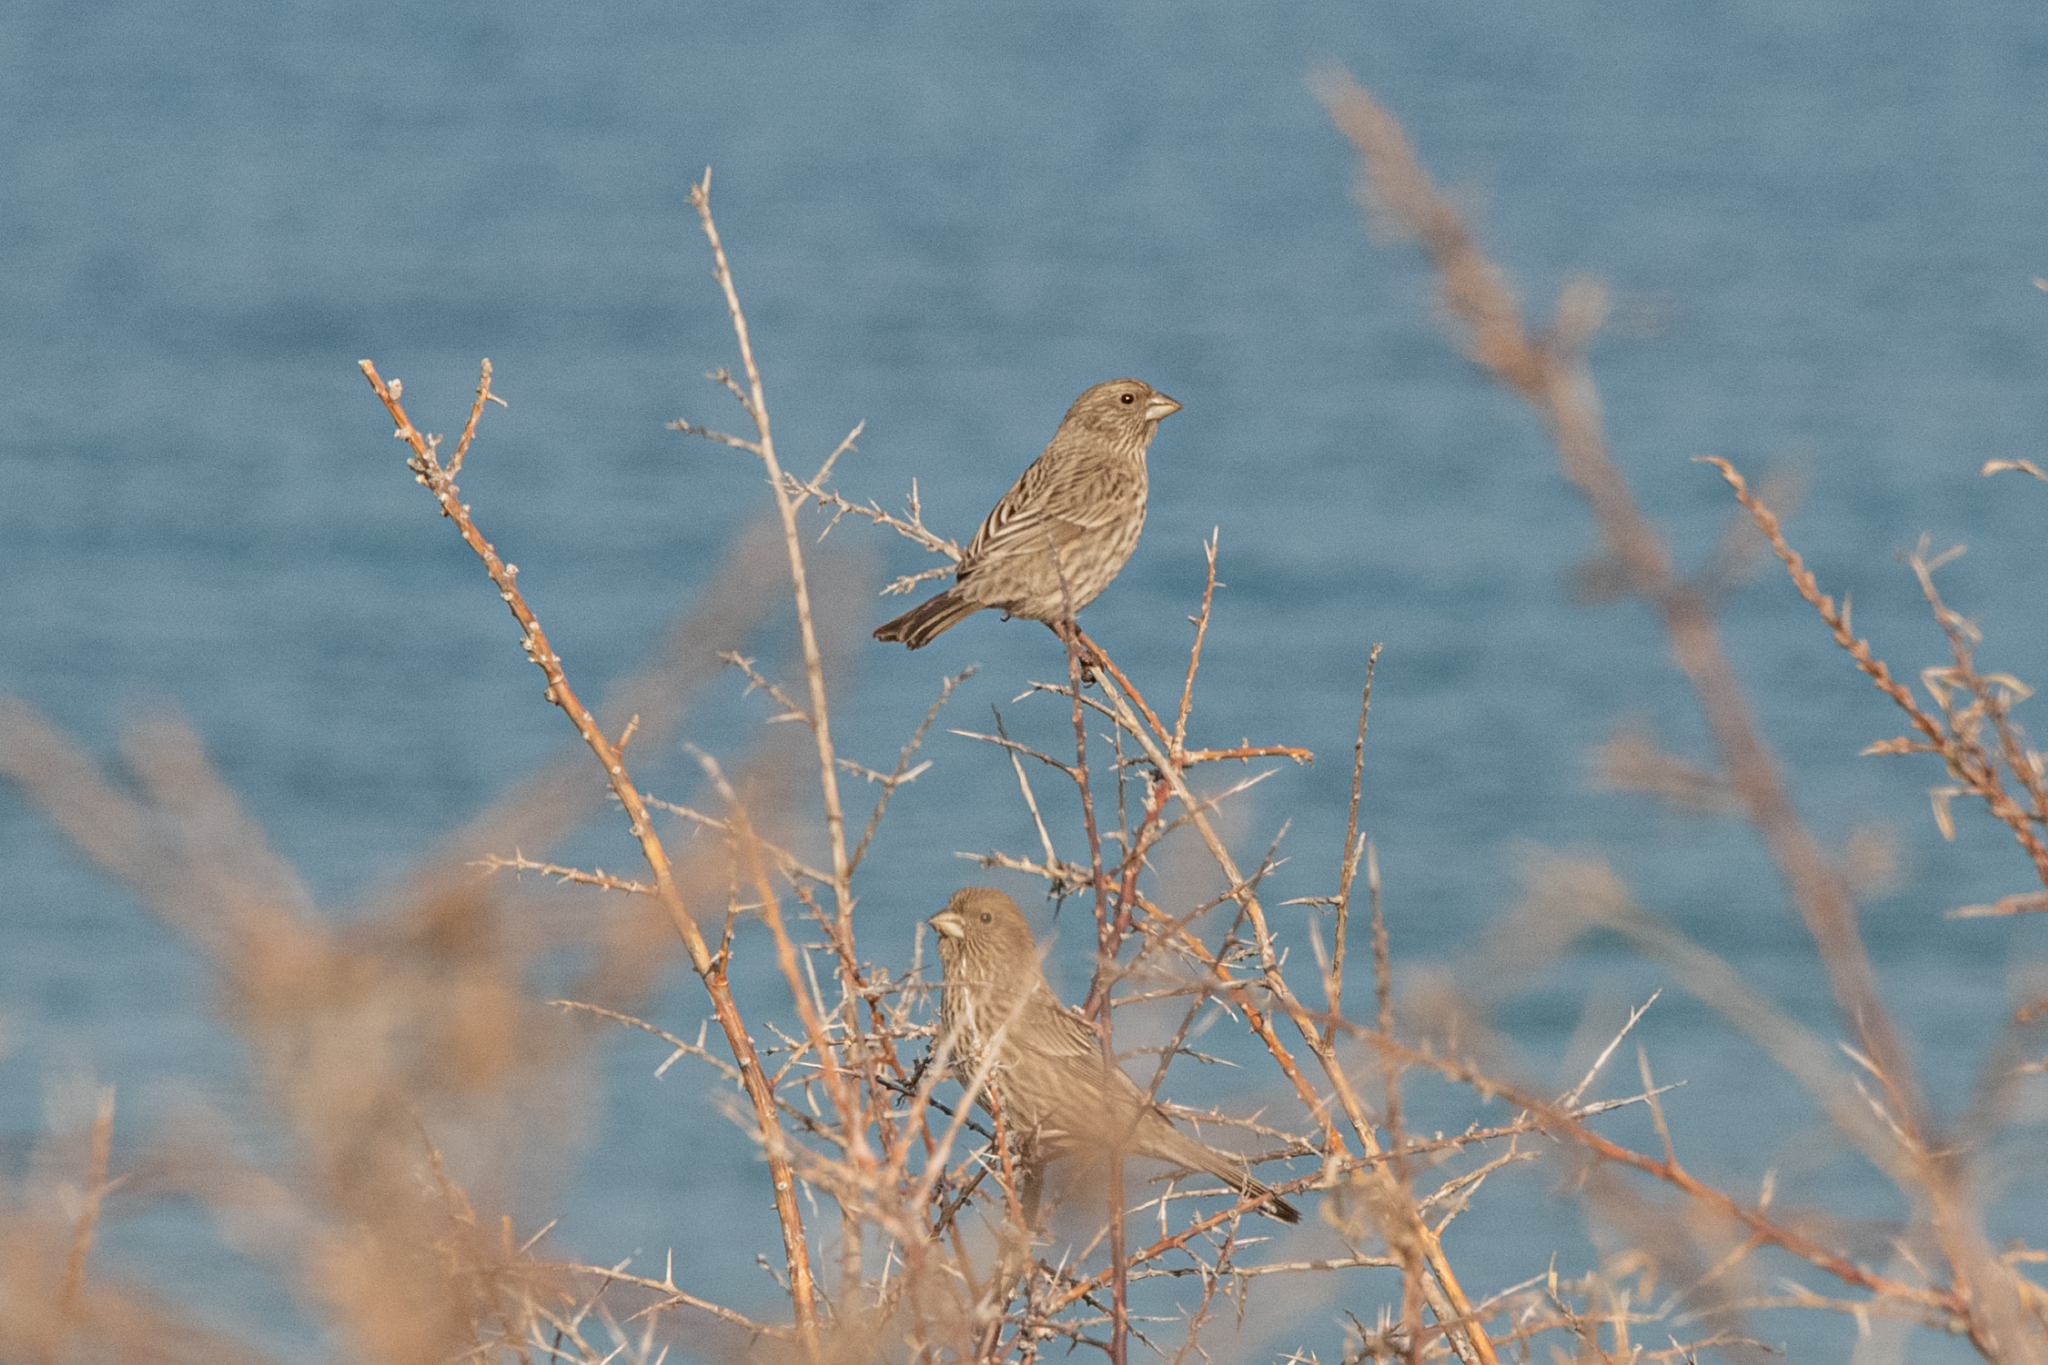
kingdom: Animalia
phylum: Chordata
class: Aves
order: Passeriformes
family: Fringillidae
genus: Carpodacus
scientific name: Carpodacus rhodochlamys
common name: Red-mantled rosefinch
